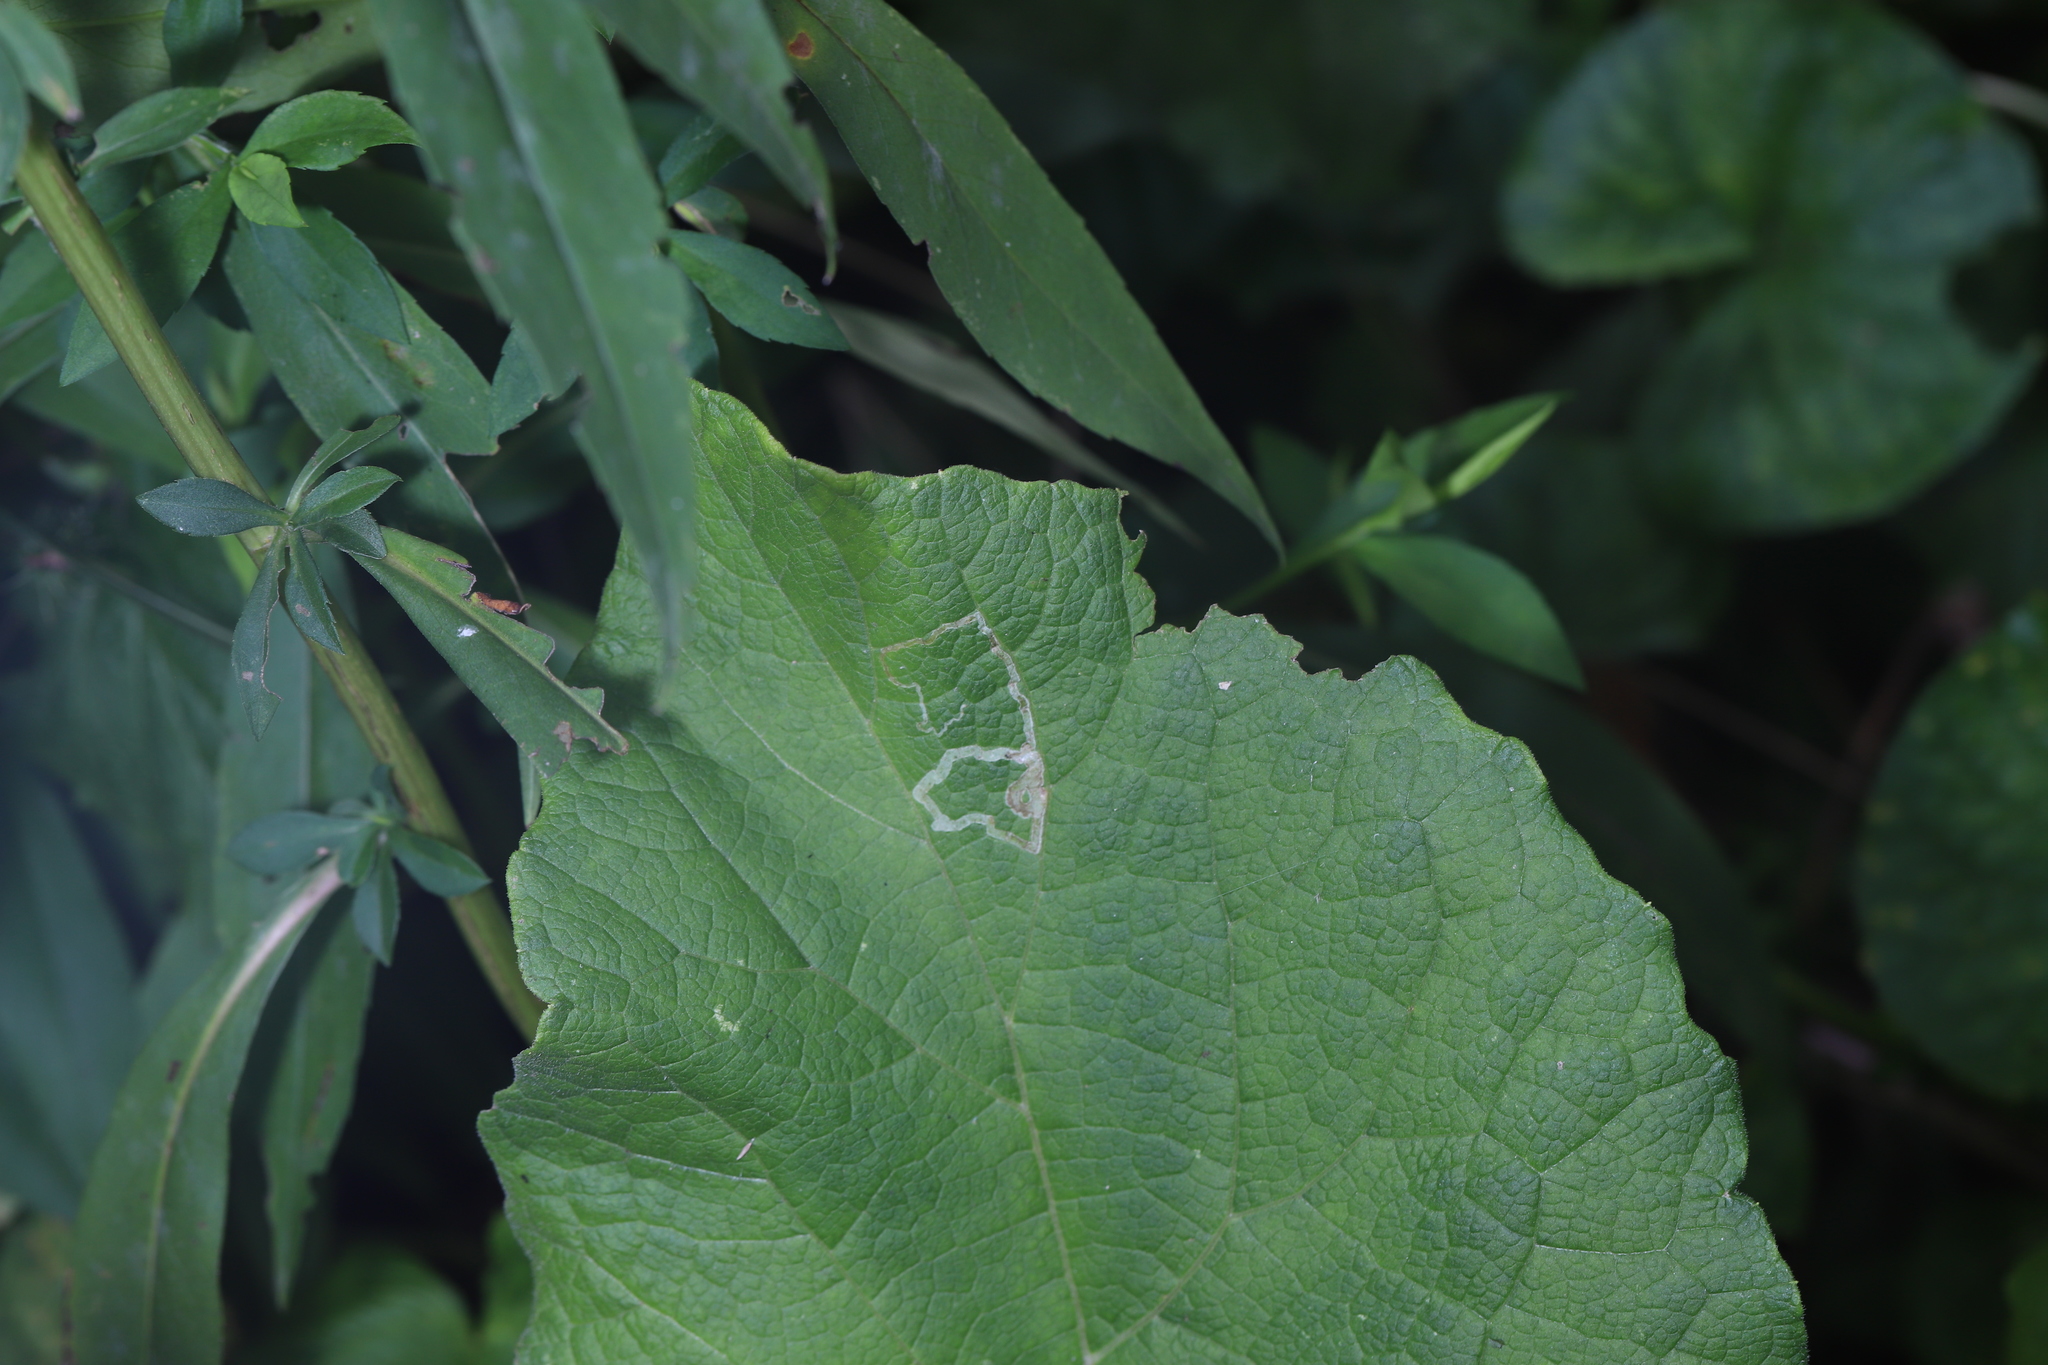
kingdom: Animalia
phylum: Arthropoda
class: Insecta
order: Diptera
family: Agromyzidae
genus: Liriomyza
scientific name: Liriomyza arctii
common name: Burdock leafminer
